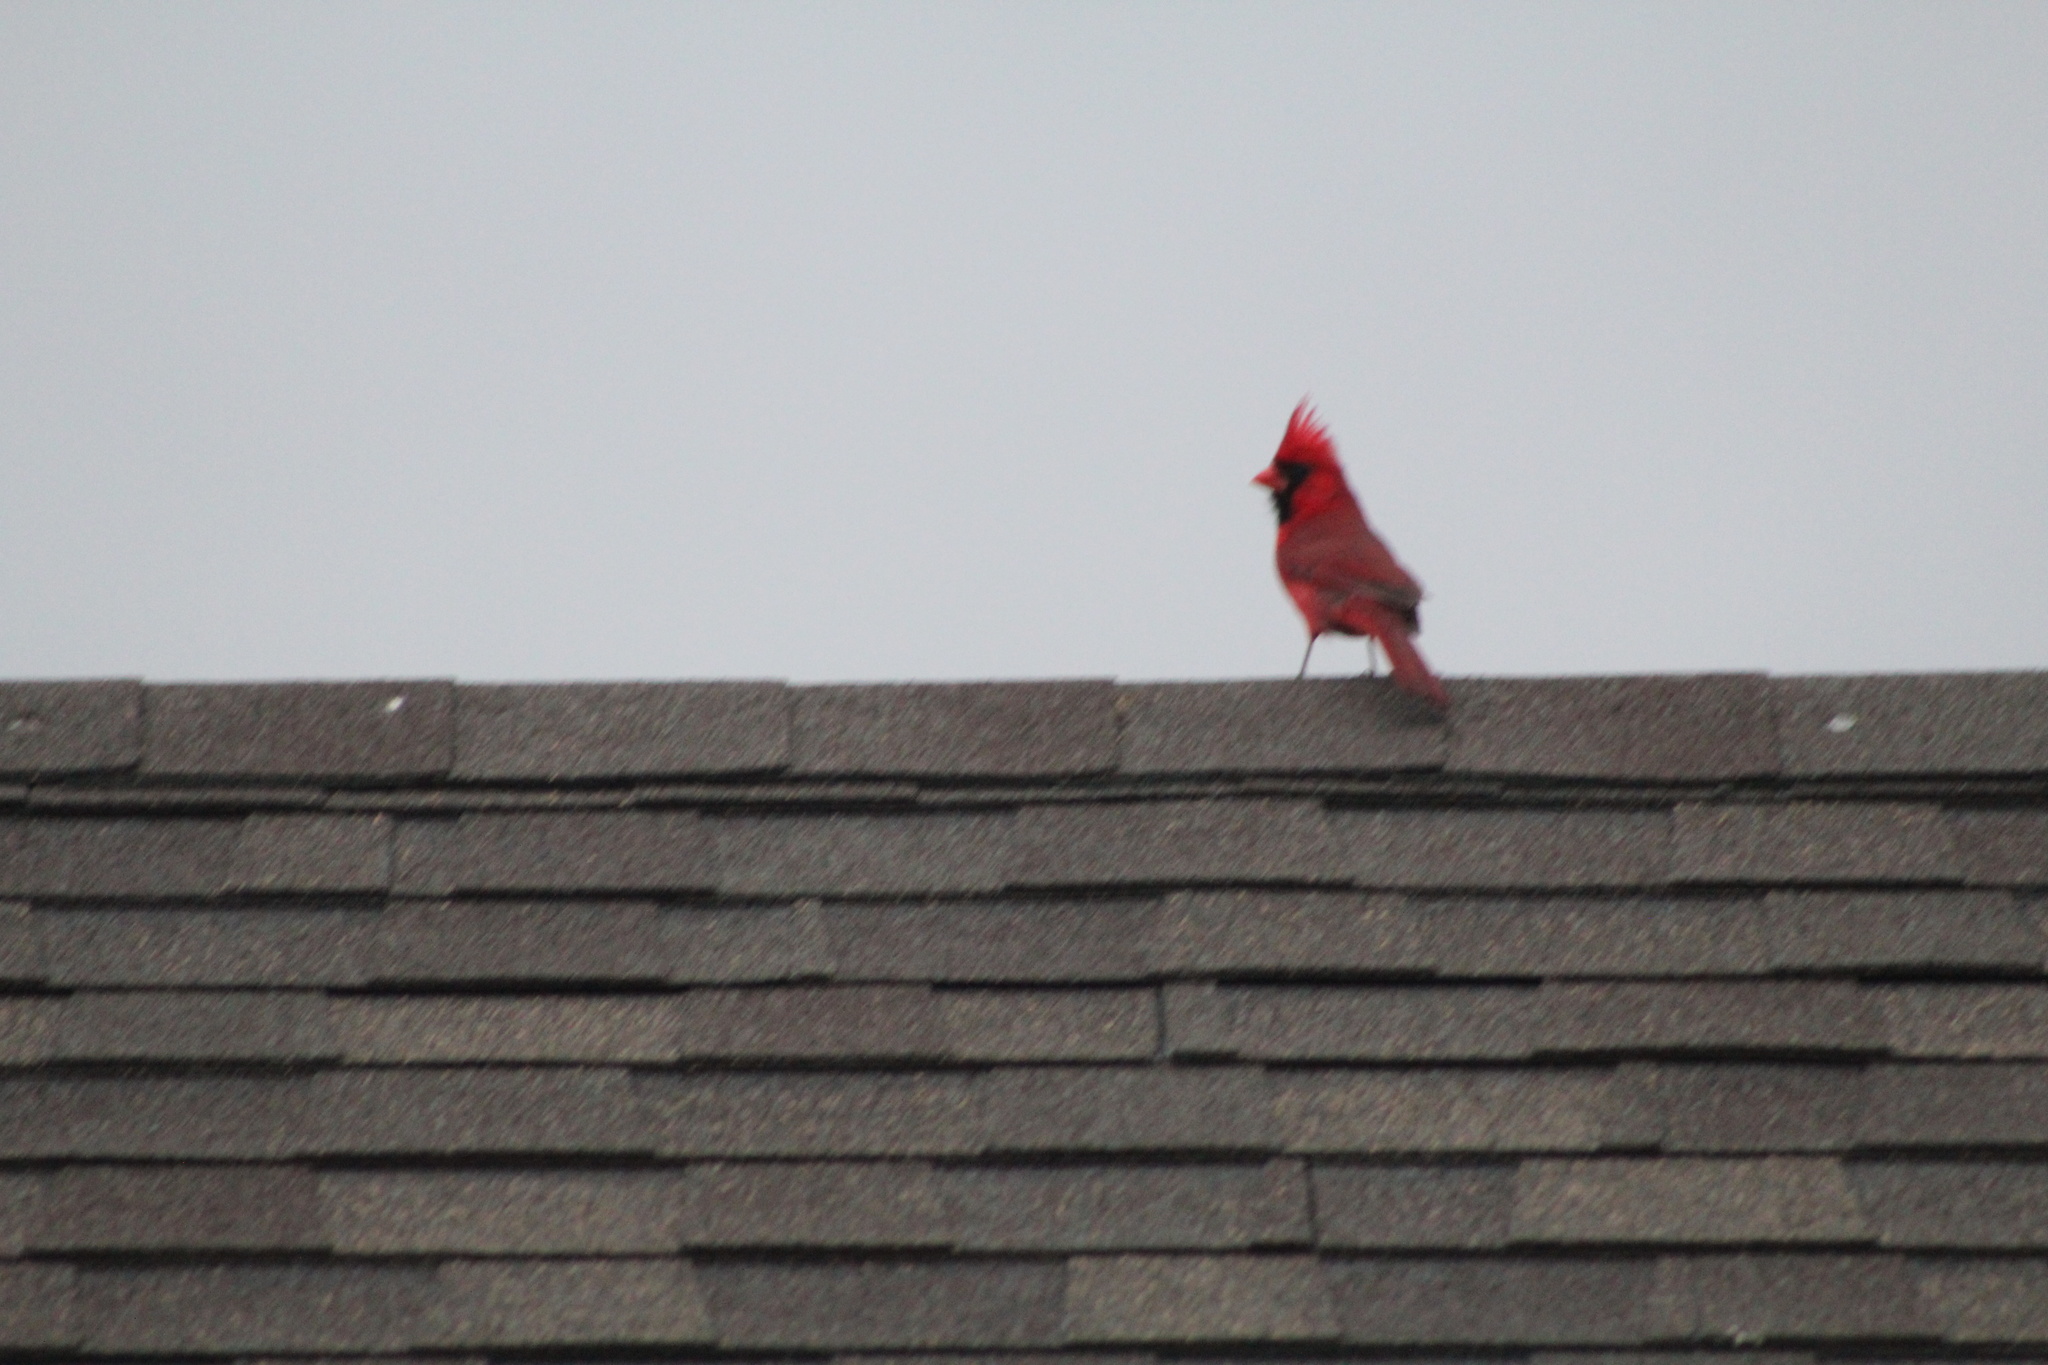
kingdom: Animalia
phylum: Chordata
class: Aves
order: Passeriformes
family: Cardinalidae
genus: Cardinalis
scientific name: Cardinalis cardinalis
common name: Northern cardinal
